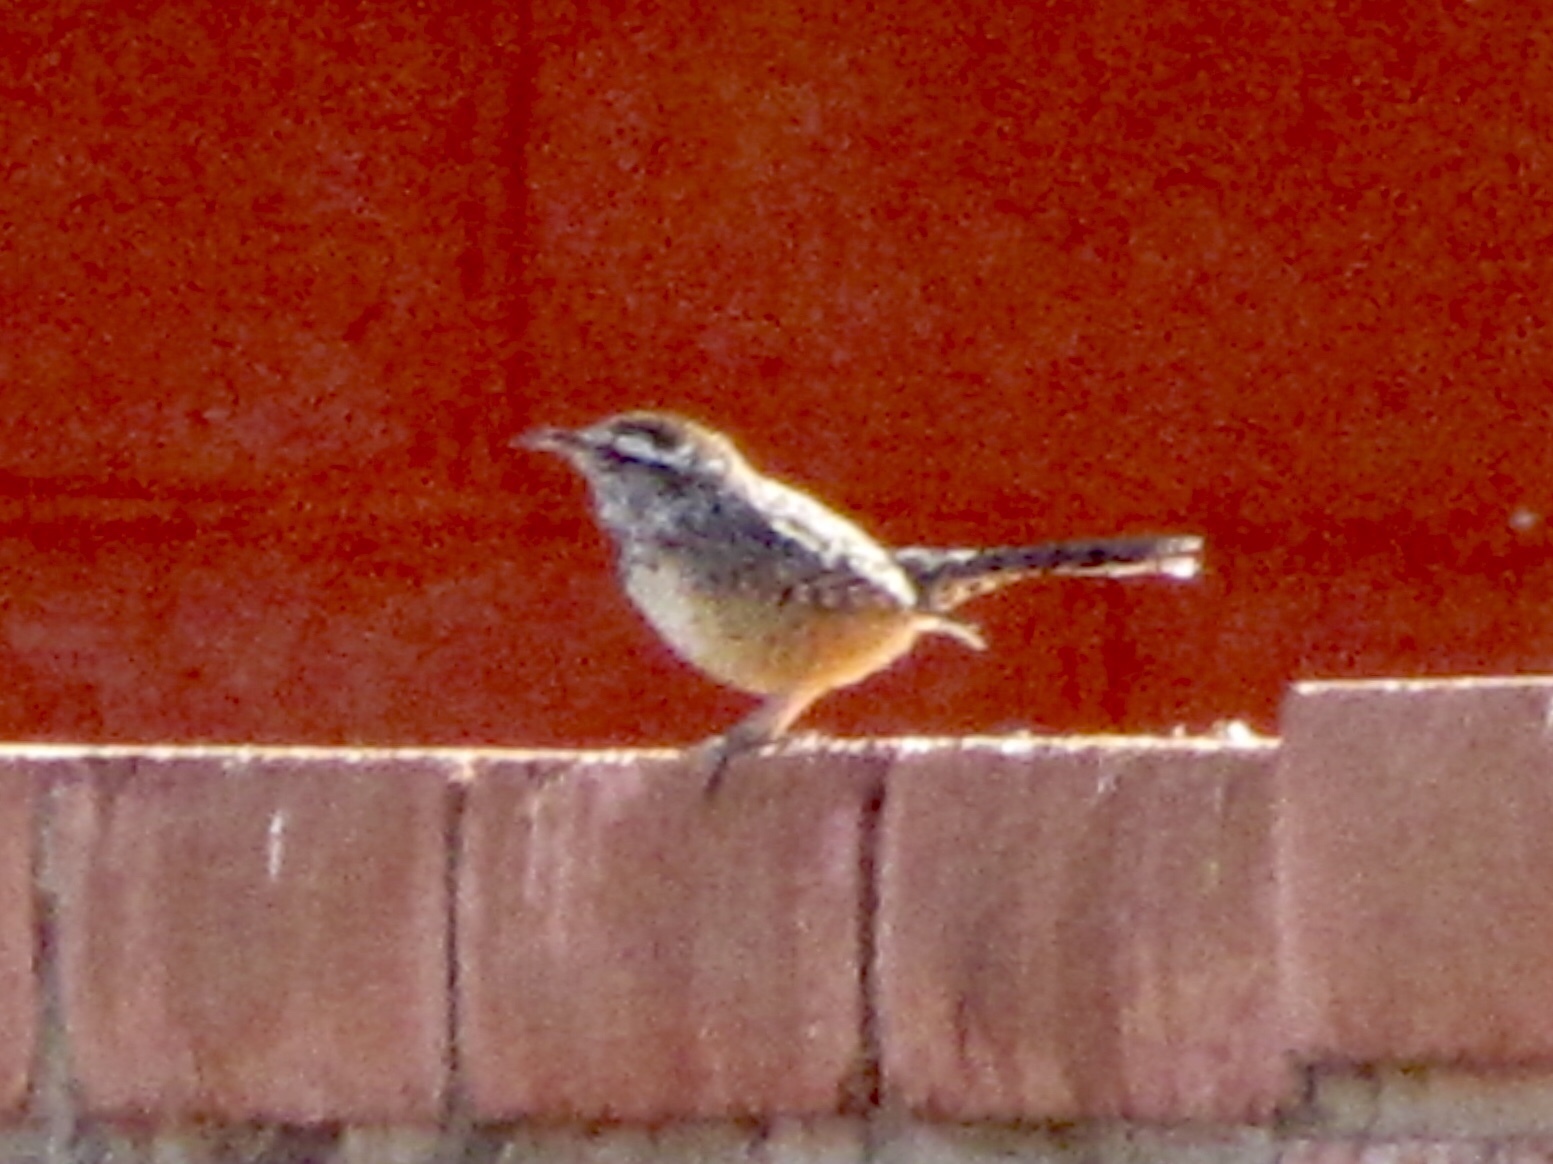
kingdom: Animalia
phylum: Chordata
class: Aves
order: Passeriformes
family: Troglodytidae
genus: Campylorhynchus
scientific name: Campylorhynchus brunneicapillus
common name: Cactus wren
